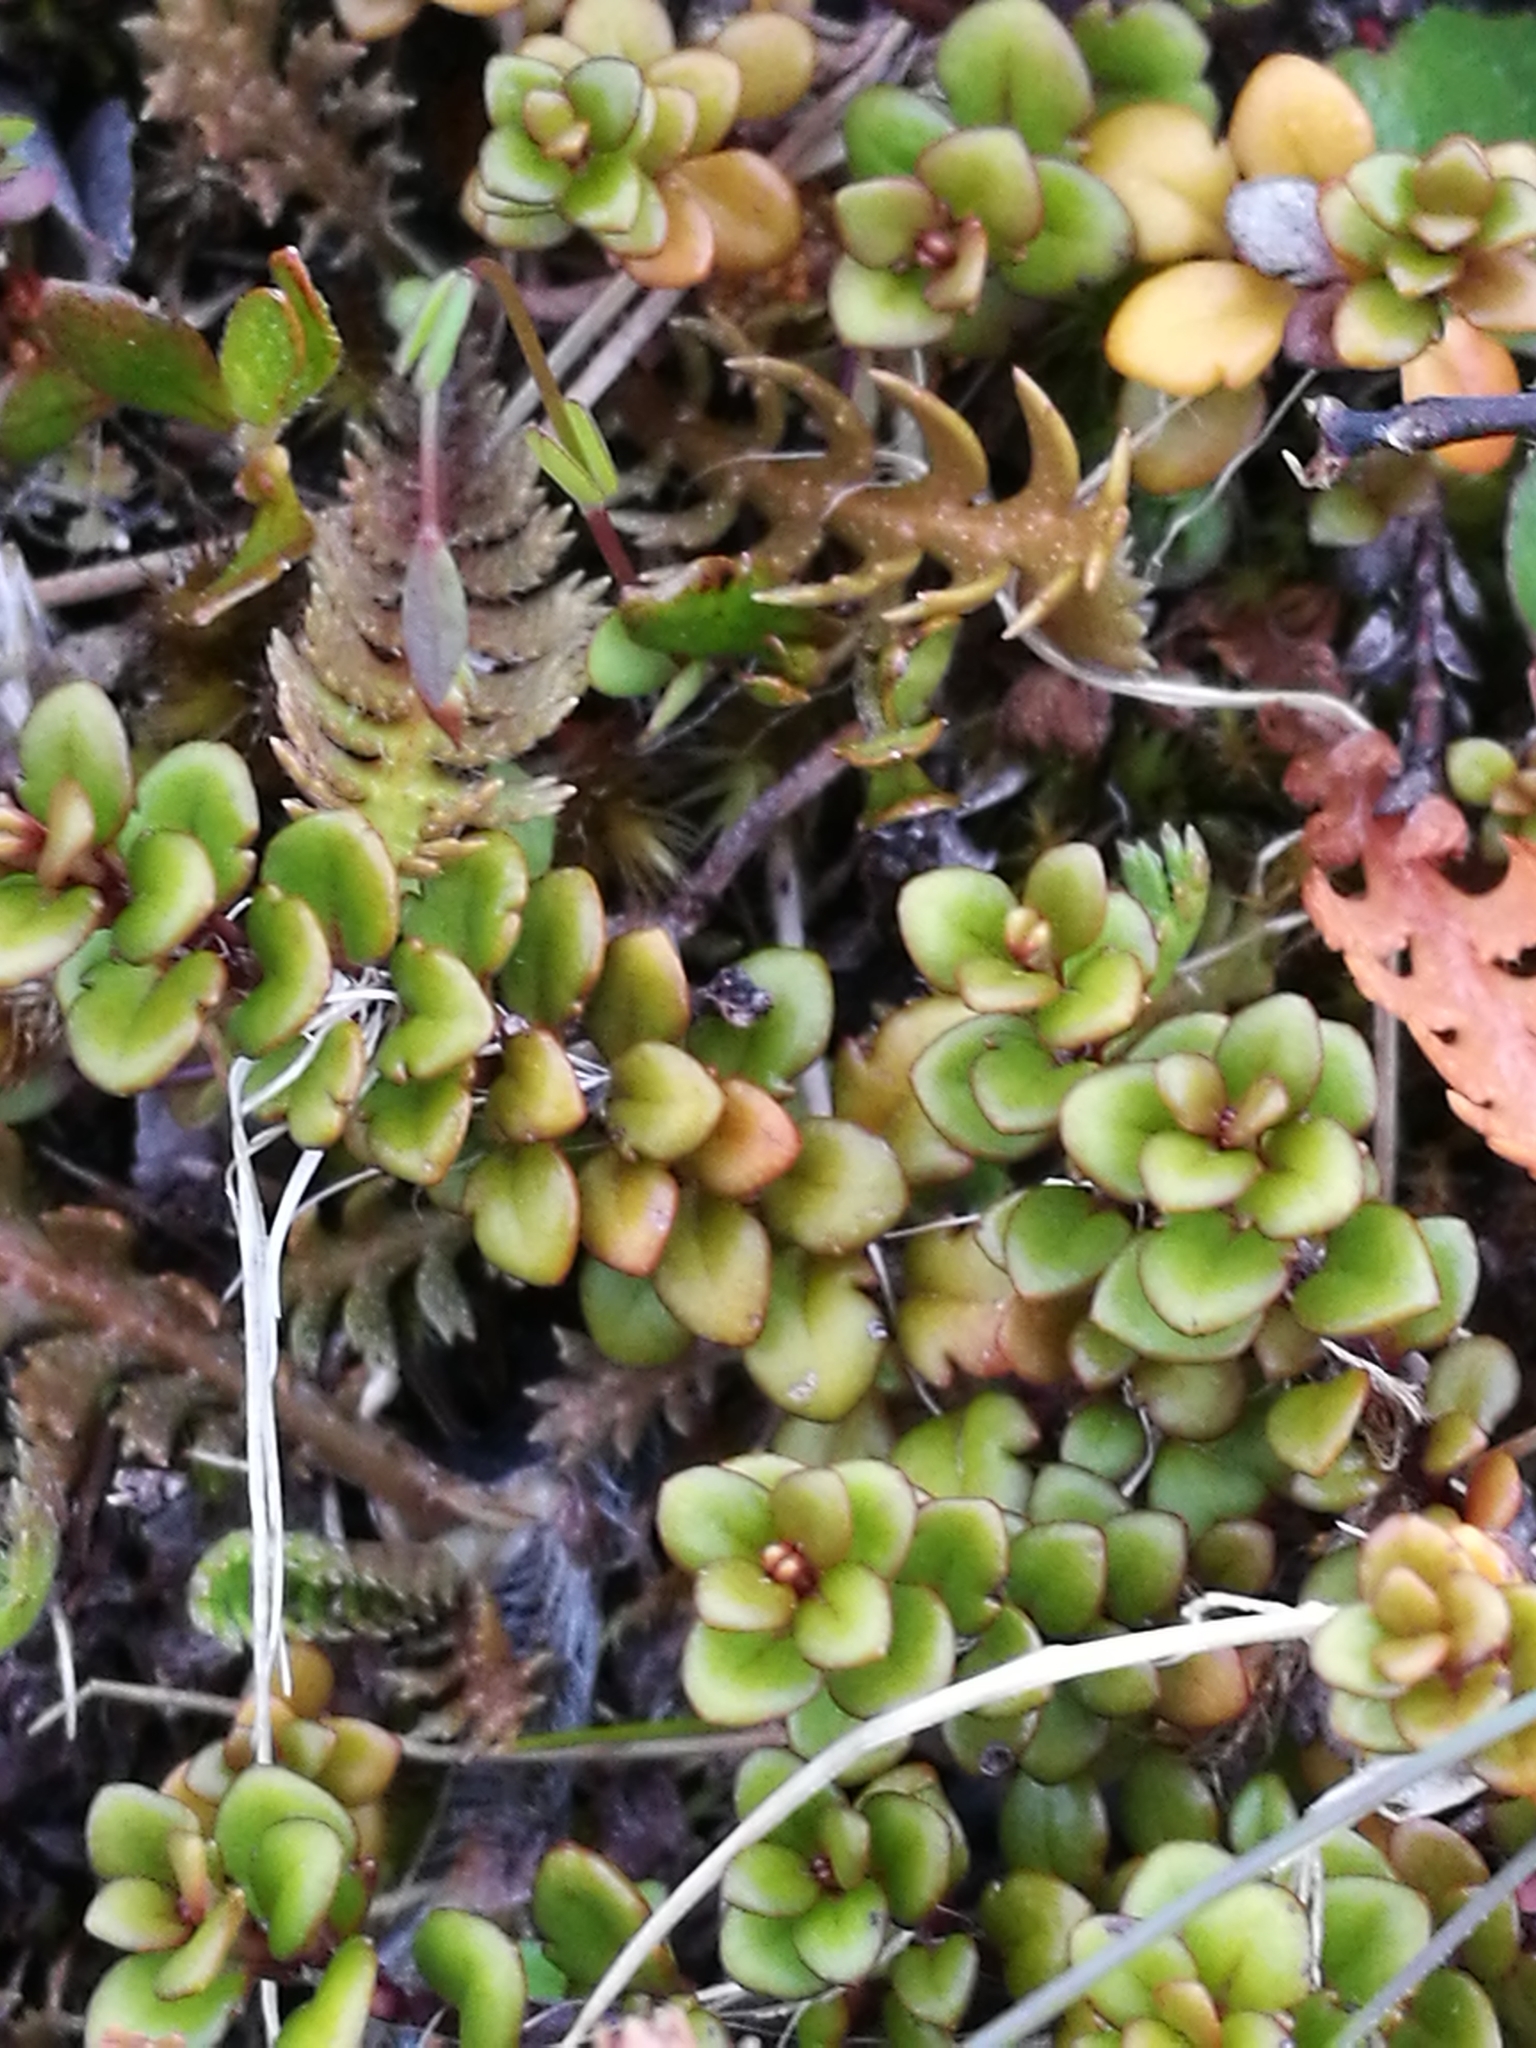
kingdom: Plantae
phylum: Tracheophyta
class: Magnoliopsida
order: Lamiales
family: Plantaginaceae
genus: Veronica
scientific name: Veronica decora
